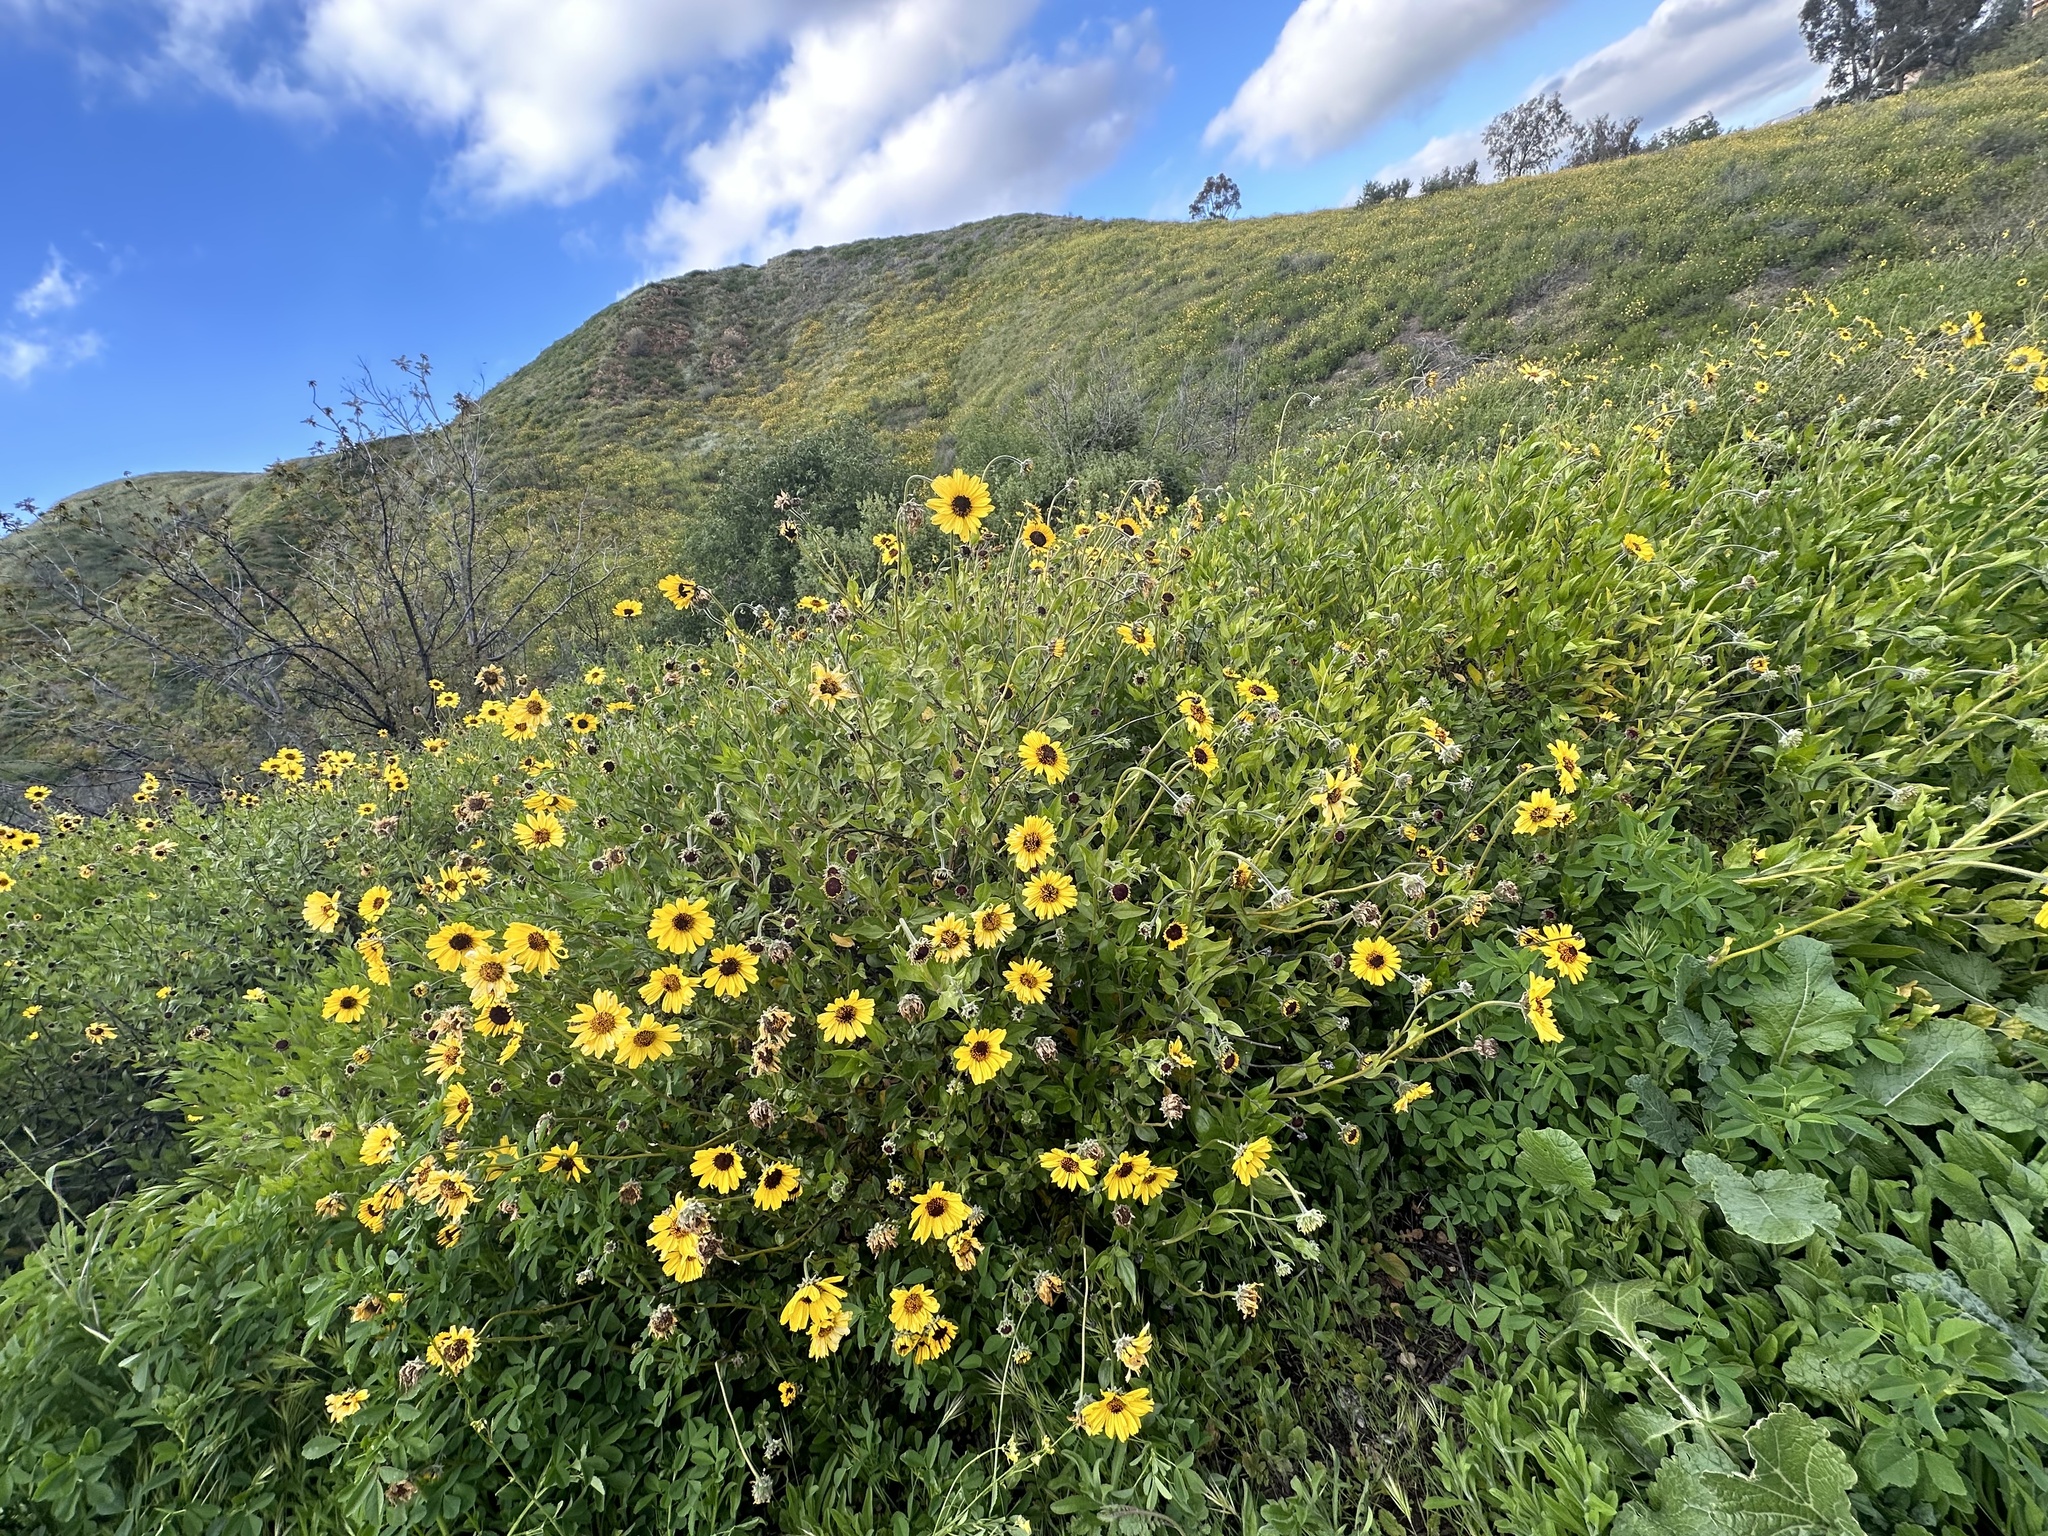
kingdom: Plantae
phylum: Tracheophyta
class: Magnoliopsida
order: Asterales
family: Asteraceae
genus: Encelia
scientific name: Encelia californica
